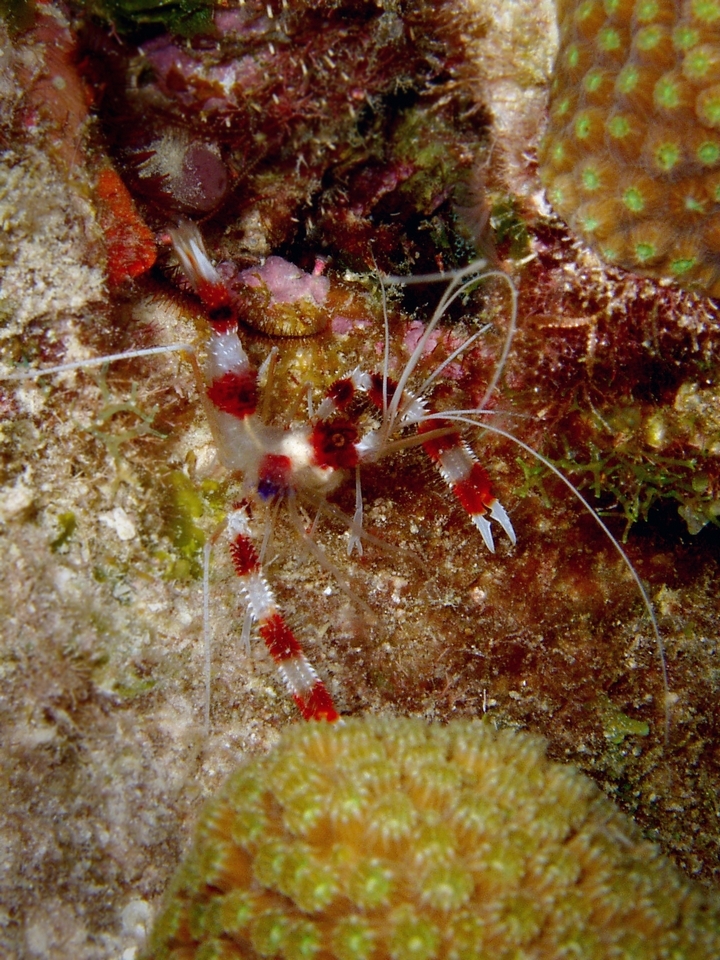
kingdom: Animalia
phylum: Arthropoda
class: Malacostraca
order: Decapoda
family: Stenopodidae
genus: Stenopus
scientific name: Stenopus hispidus
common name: Banded coral shrimp
